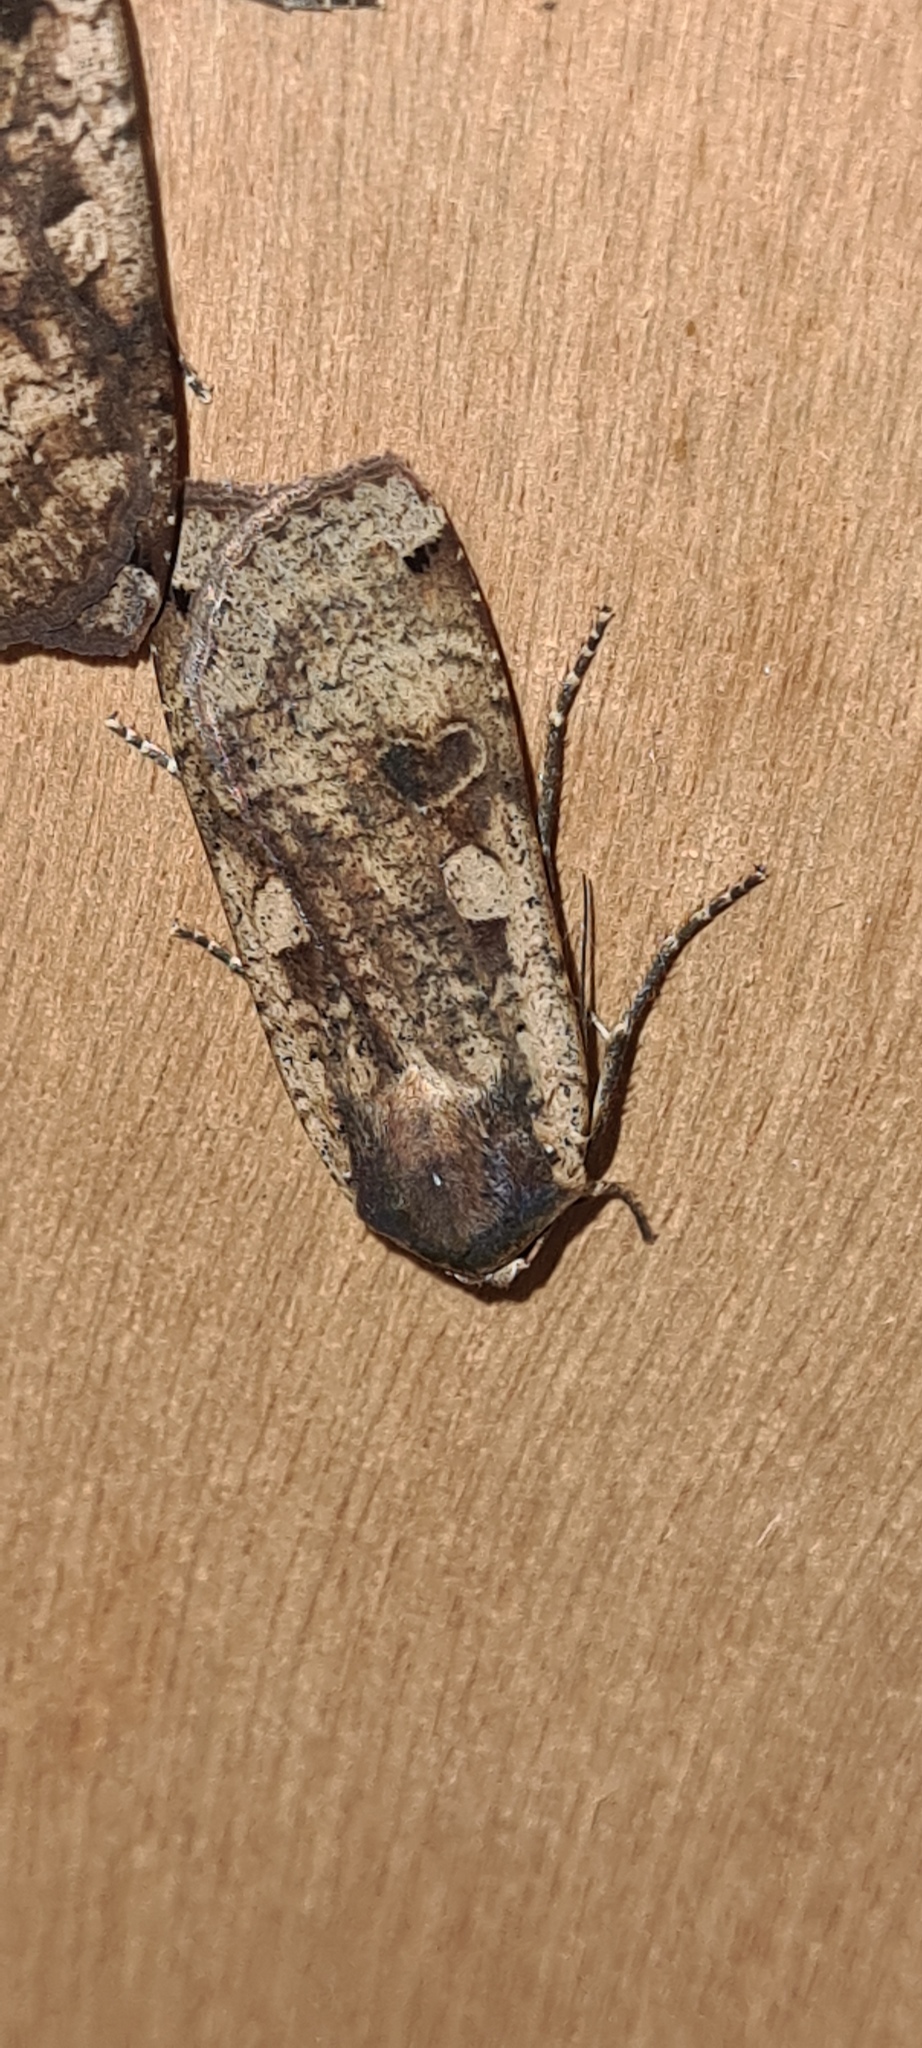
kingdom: Animalia
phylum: Arthropoda
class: Insecta
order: Lepidoptera
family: Noctuidae
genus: Noctua
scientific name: Noctua pronuba
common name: Large yellow underwing
